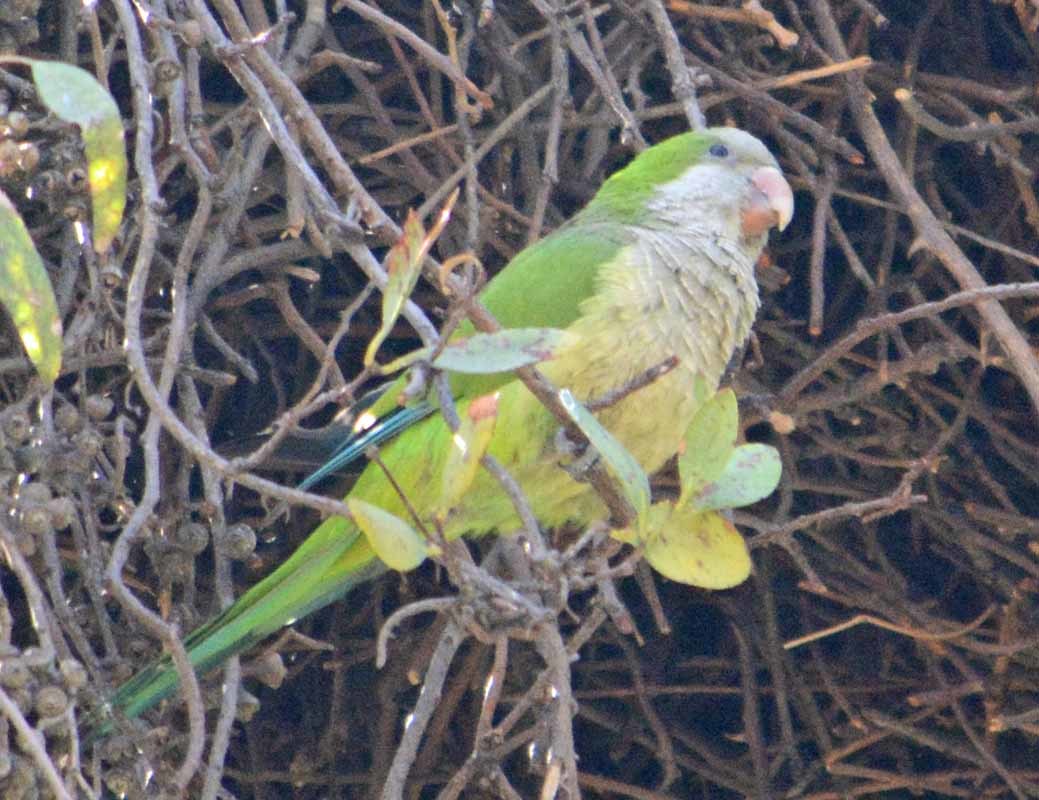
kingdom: Animalia
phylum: Chordata
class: Aves
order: Psittaciformes
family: Psittacidae
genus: Myiopsitta
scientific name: Myiopsitta monachus
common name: Monk parakeet
